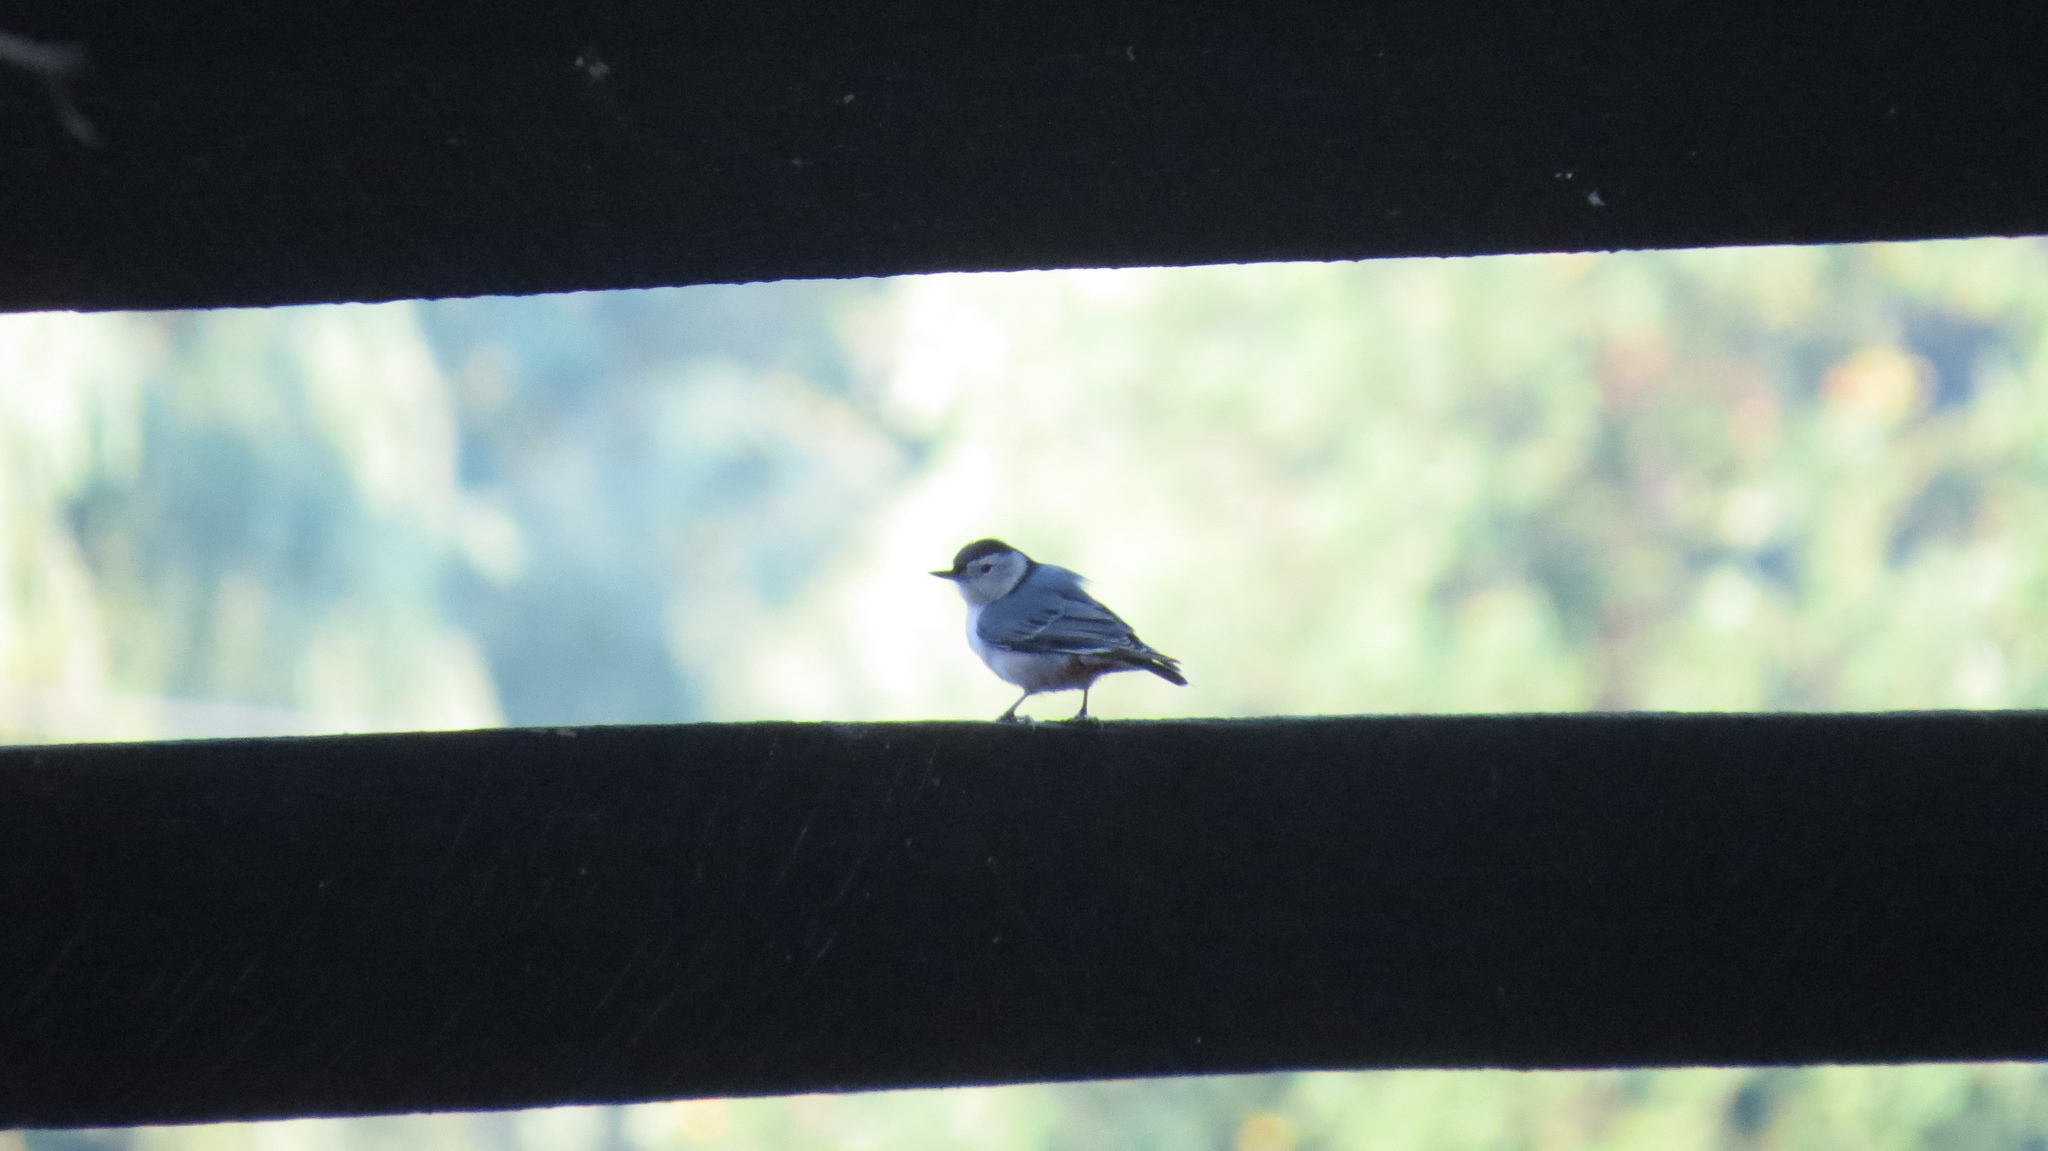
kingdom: Animalia
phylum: Chordata
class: Aves
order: Passeriformes
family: Sittidae
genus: Sitta
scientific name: Sitta carolinensis
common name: White-breasted nuthatch
